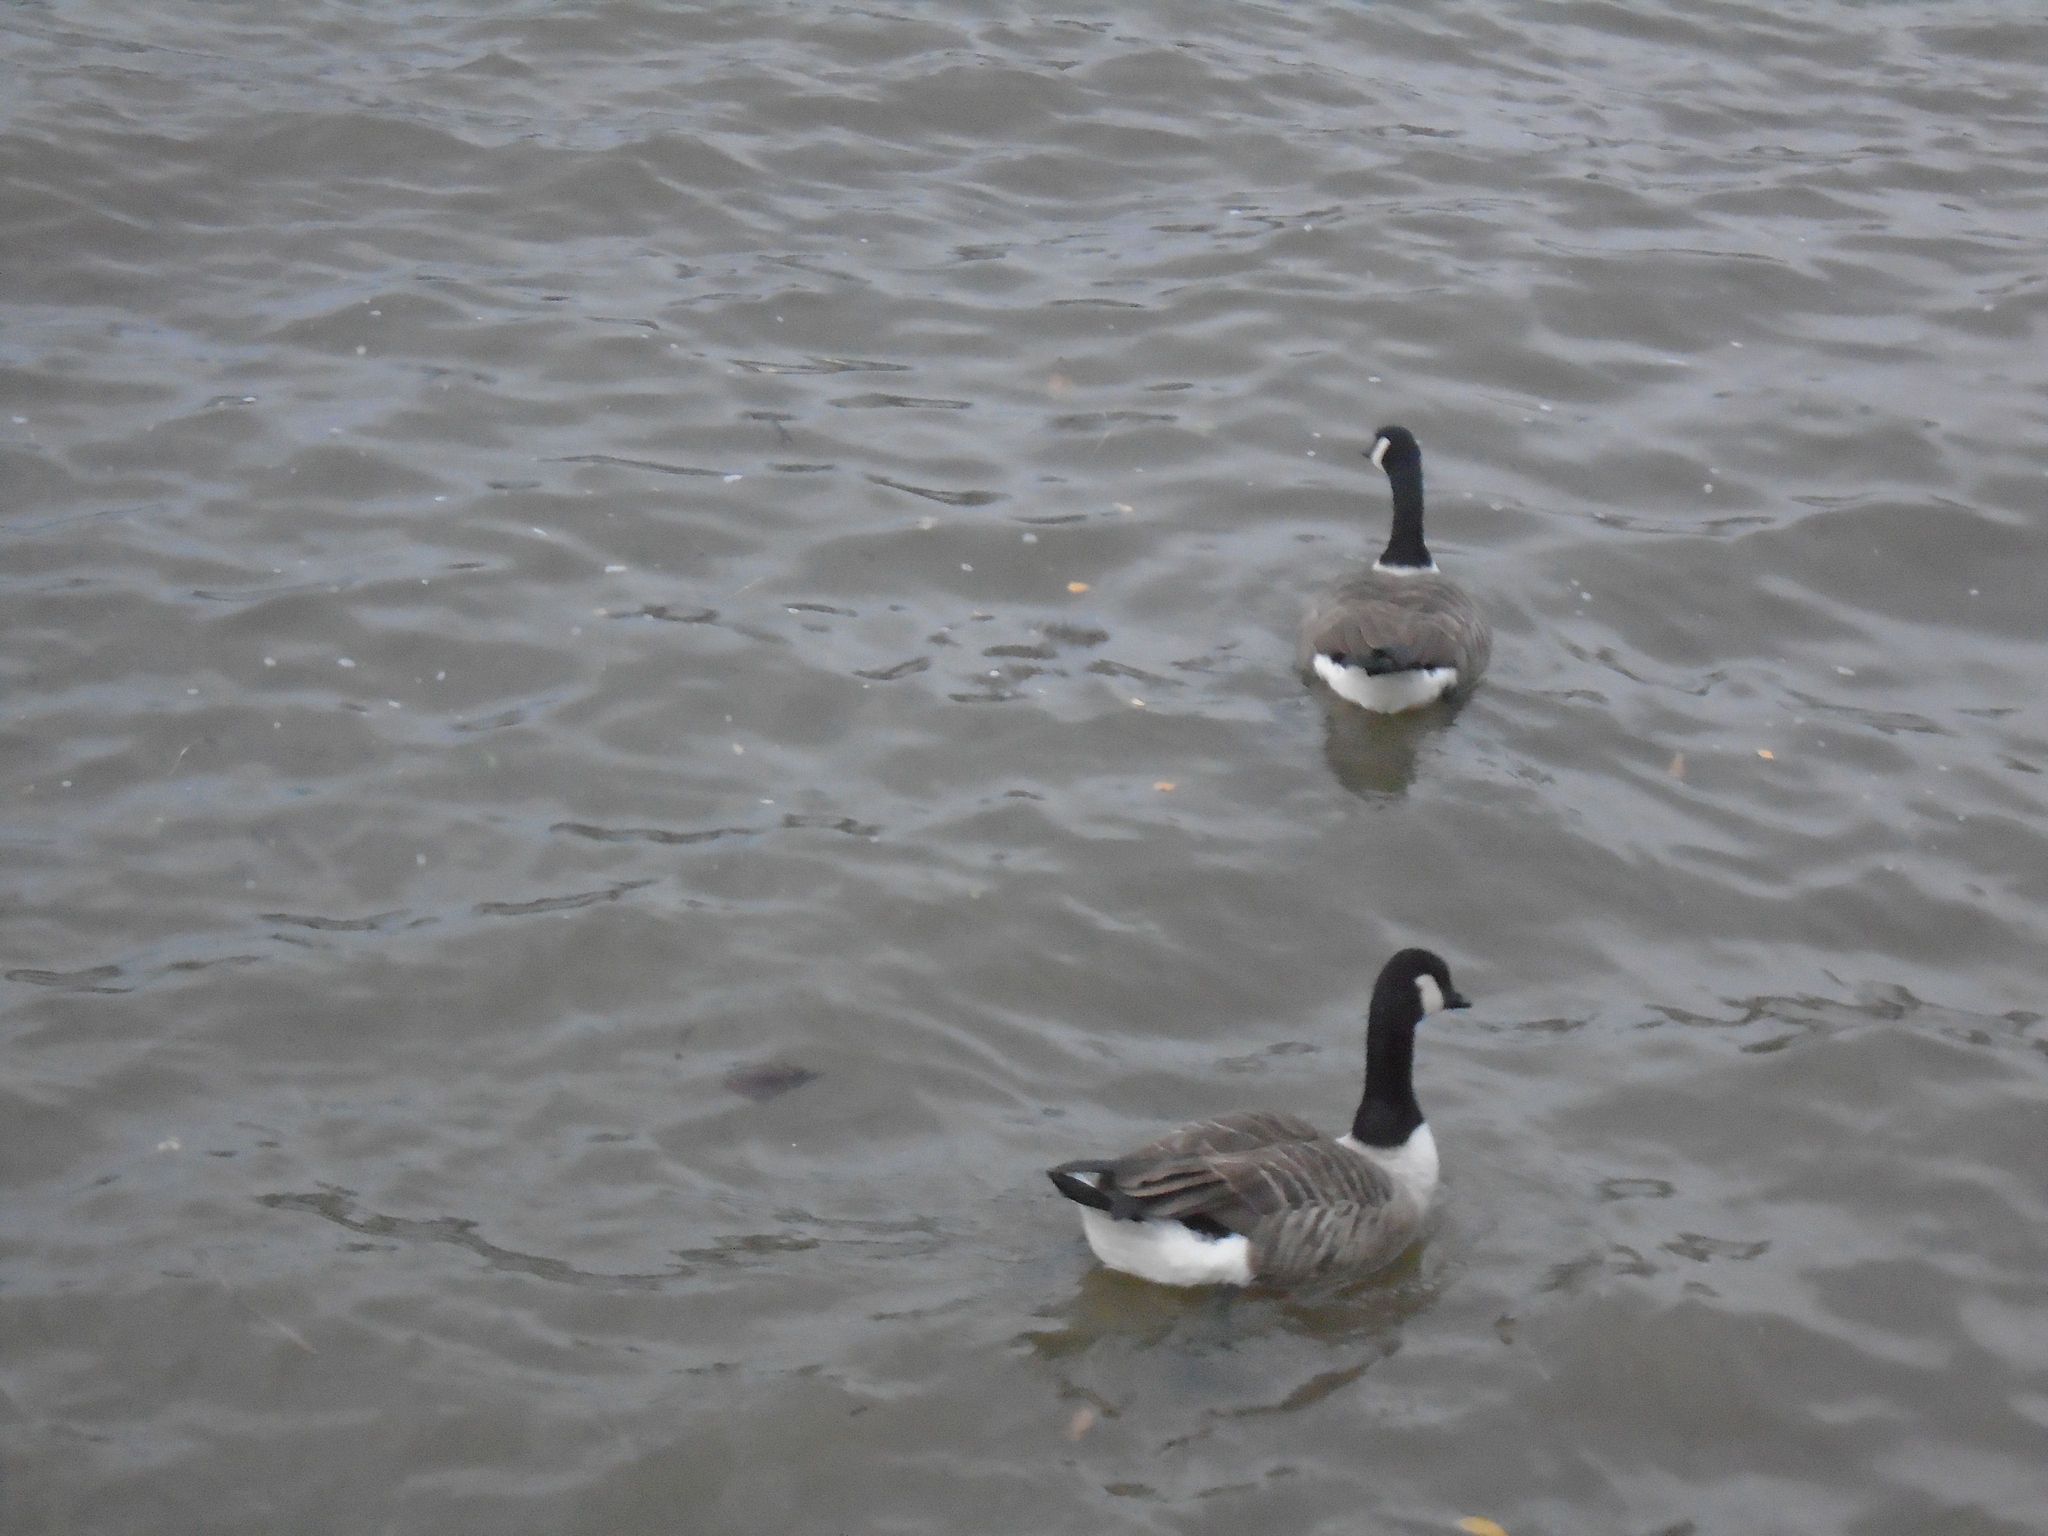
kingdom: Animalia
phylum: Chordata
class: Aves
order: Anseriformes
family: Anatidae
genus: Branta
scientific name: Branta canadensis
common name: Canada goose
